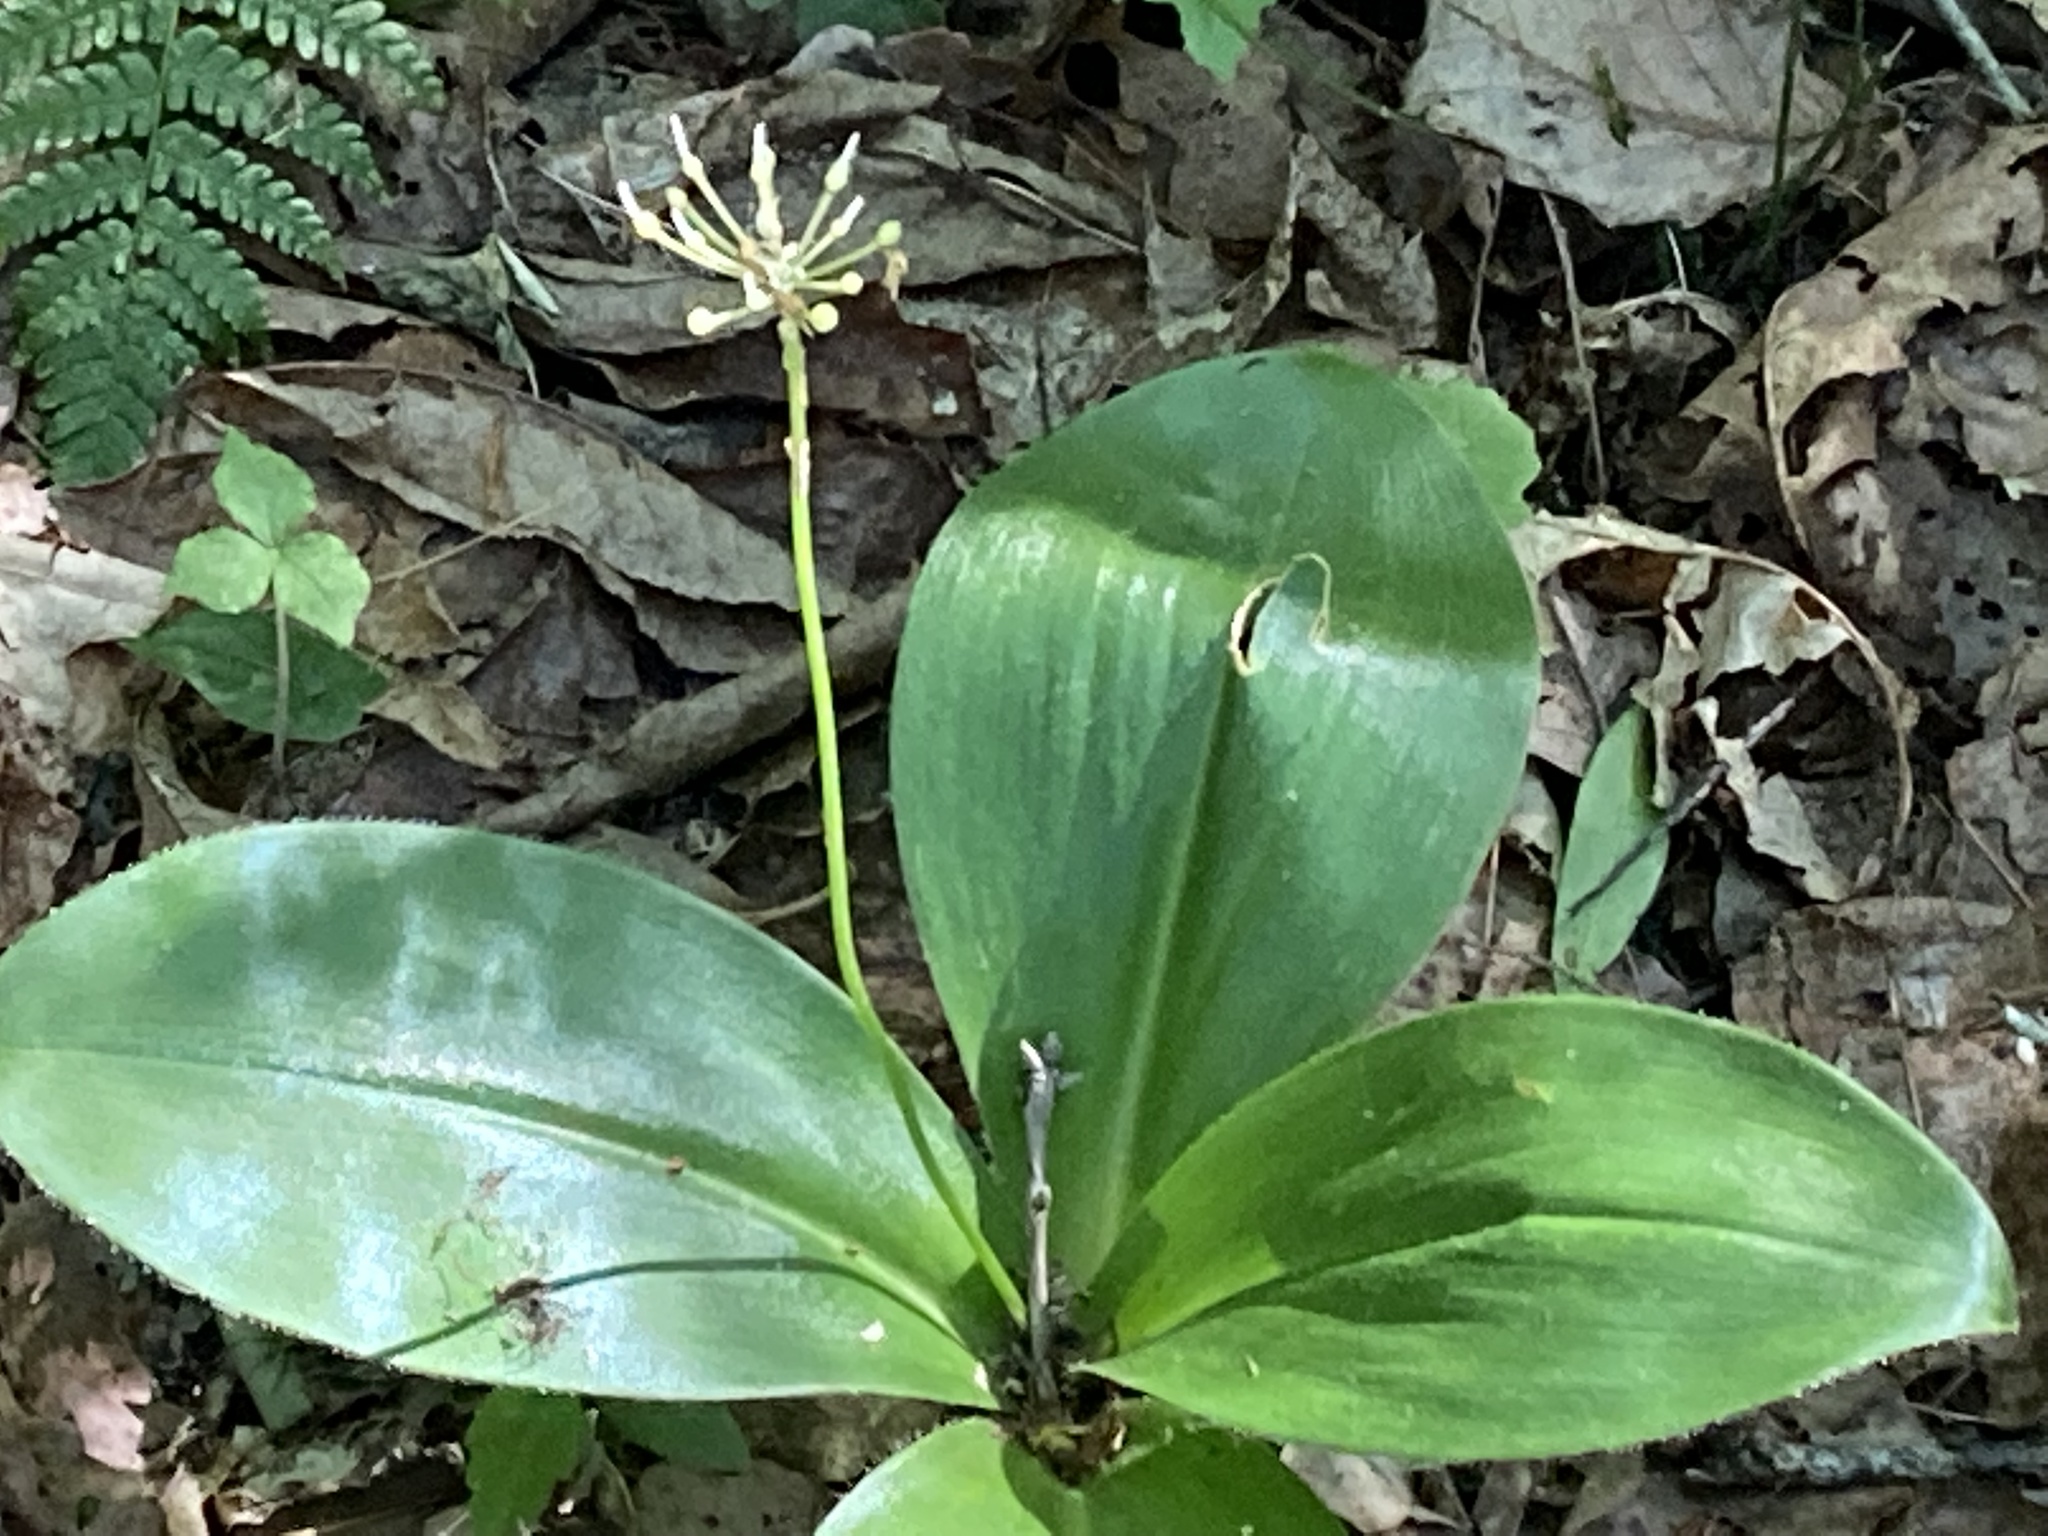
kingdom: Plantae
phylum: Tracheophyta
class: Liliopsida
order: Liliales
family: Liliaceae
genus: Clintonia
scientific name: Clintonia umbellulata
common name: Speckle wood-lily
